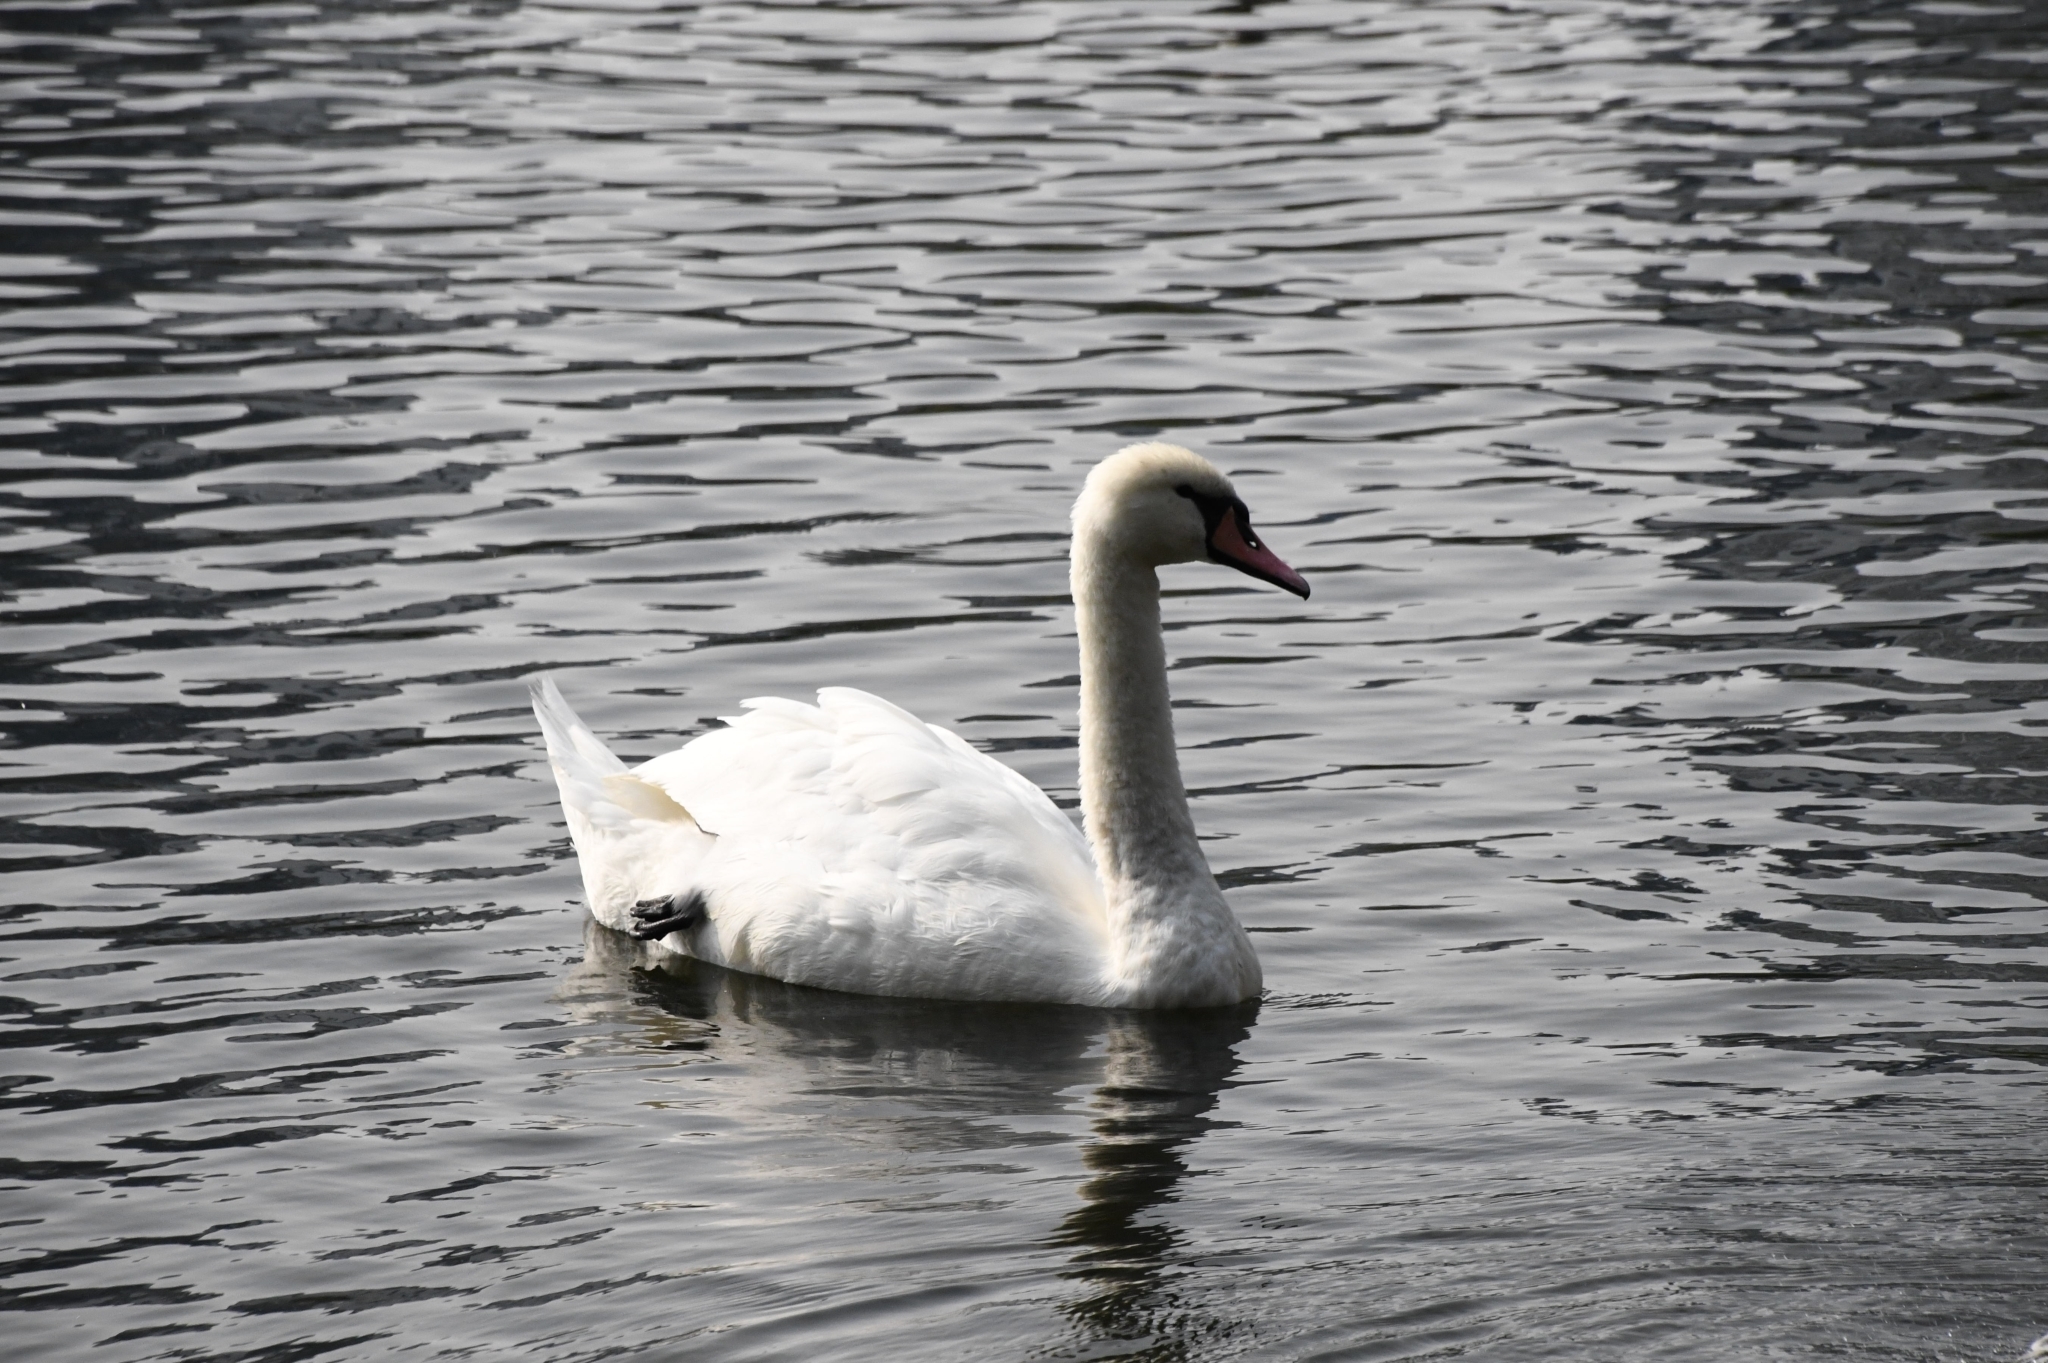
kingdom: Animalia
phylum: Chordata
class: Aves
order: Anseriformes
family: Anatidae
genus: Cygnus
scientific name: Cygnus olor
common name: Mute swan
